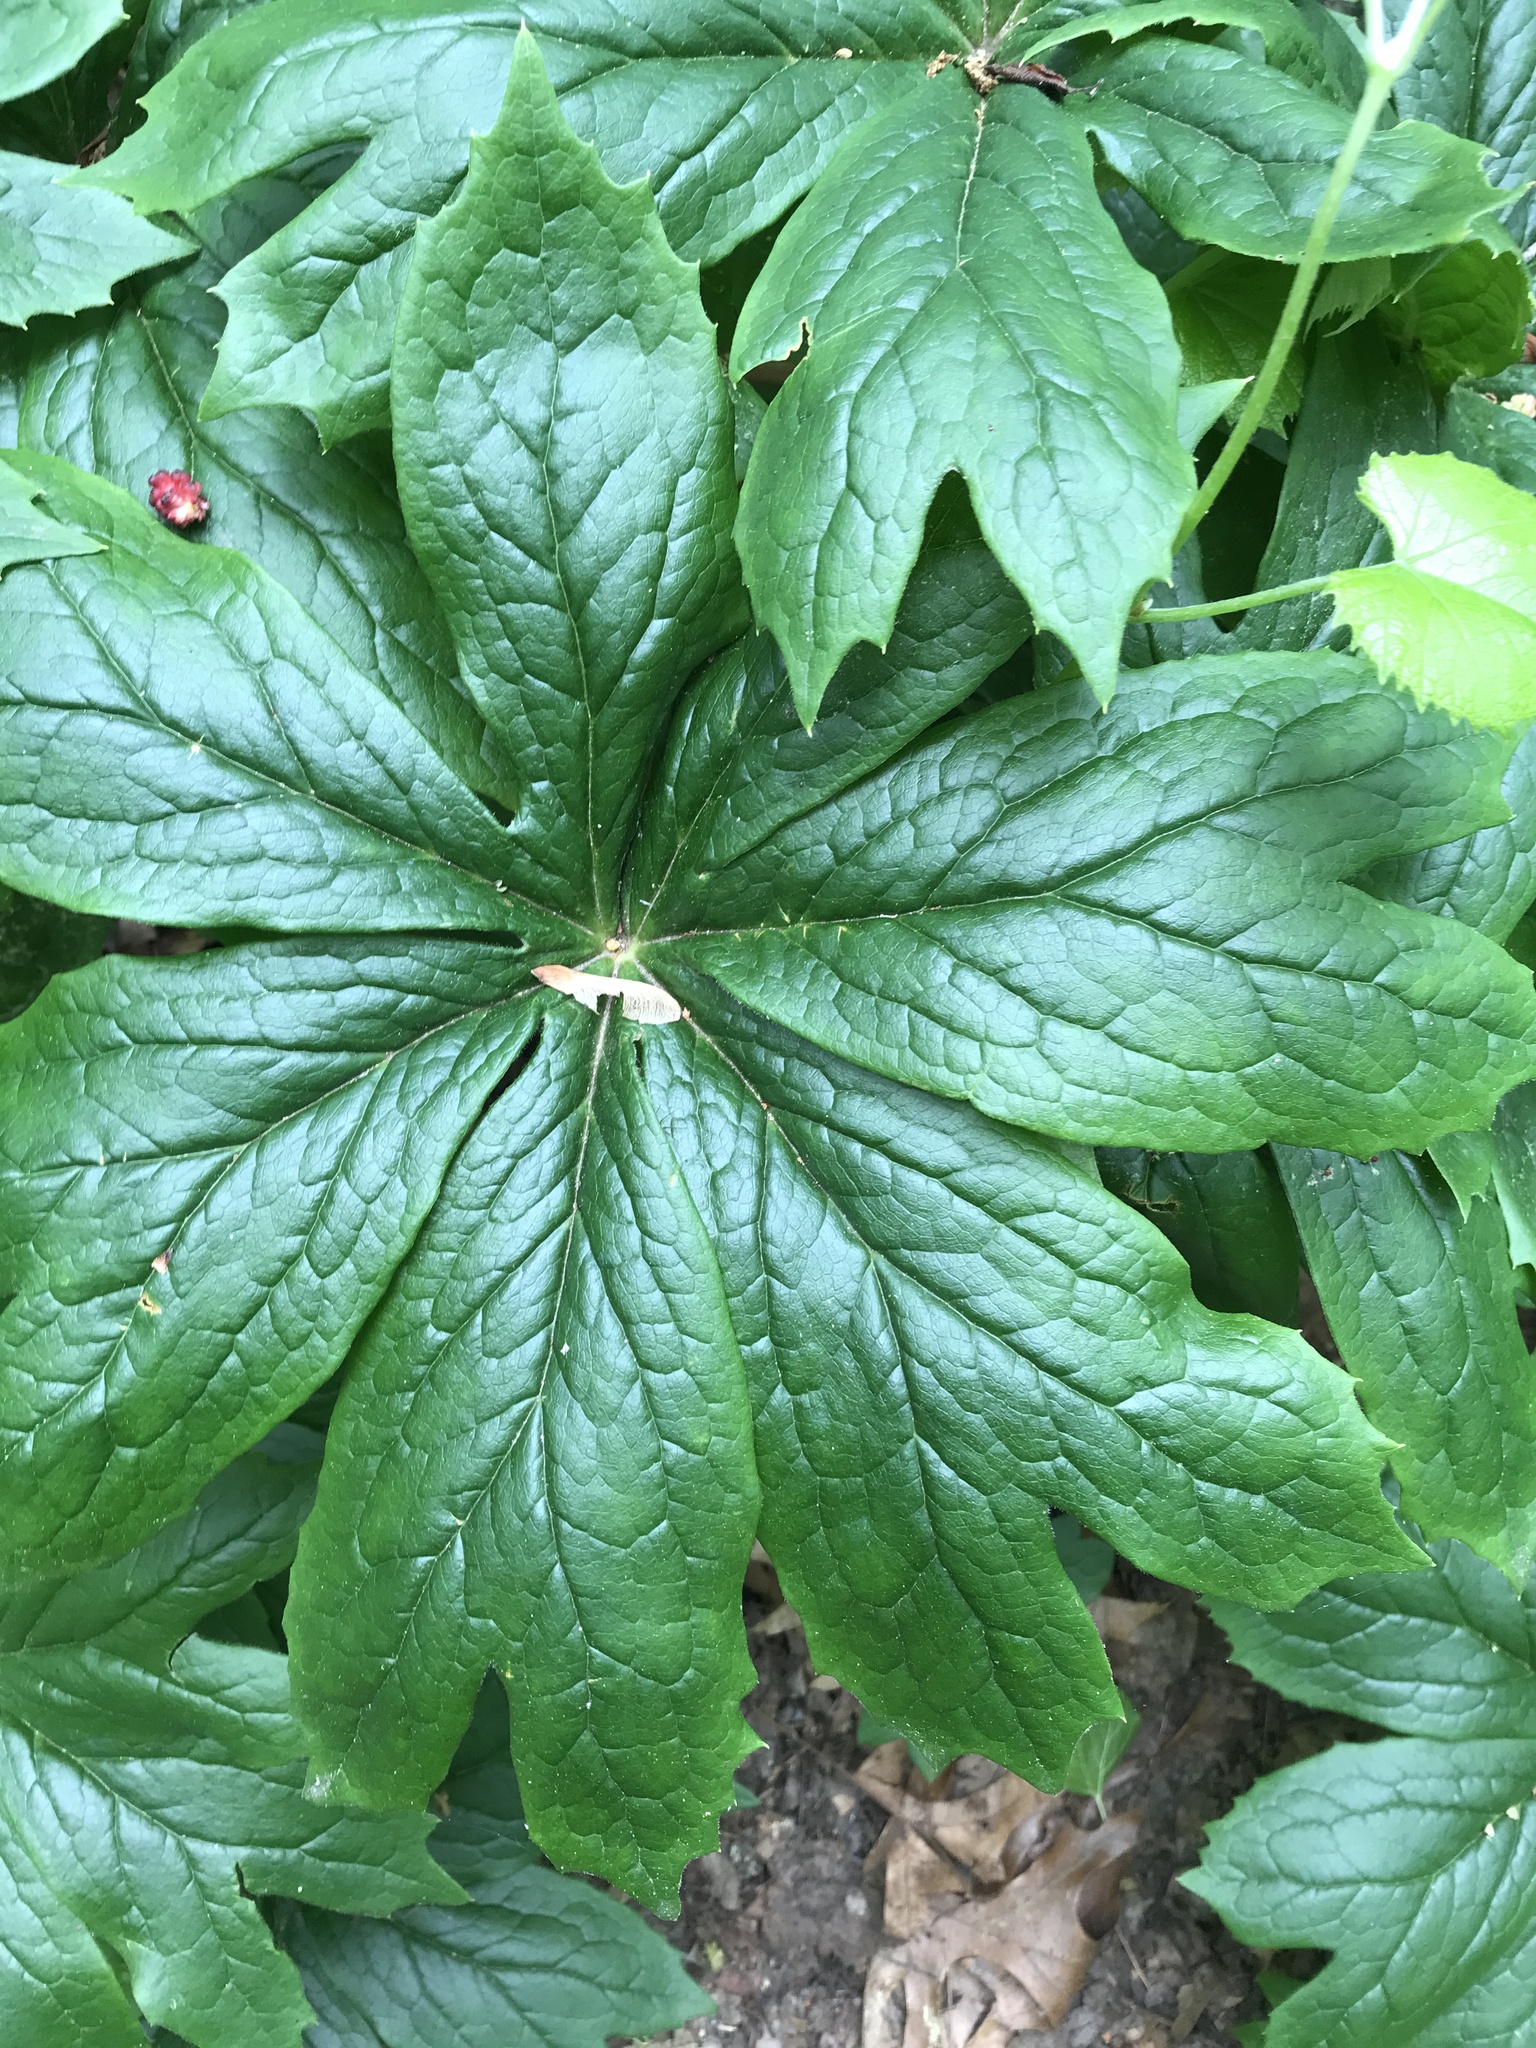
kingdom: Plantae
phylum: Tracheophyta
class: Magnoliopsida
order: Ranunculales
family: Berberidaceae
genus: Podophyllum
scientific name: Podophyllum peltatum
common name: Wild mandrake
